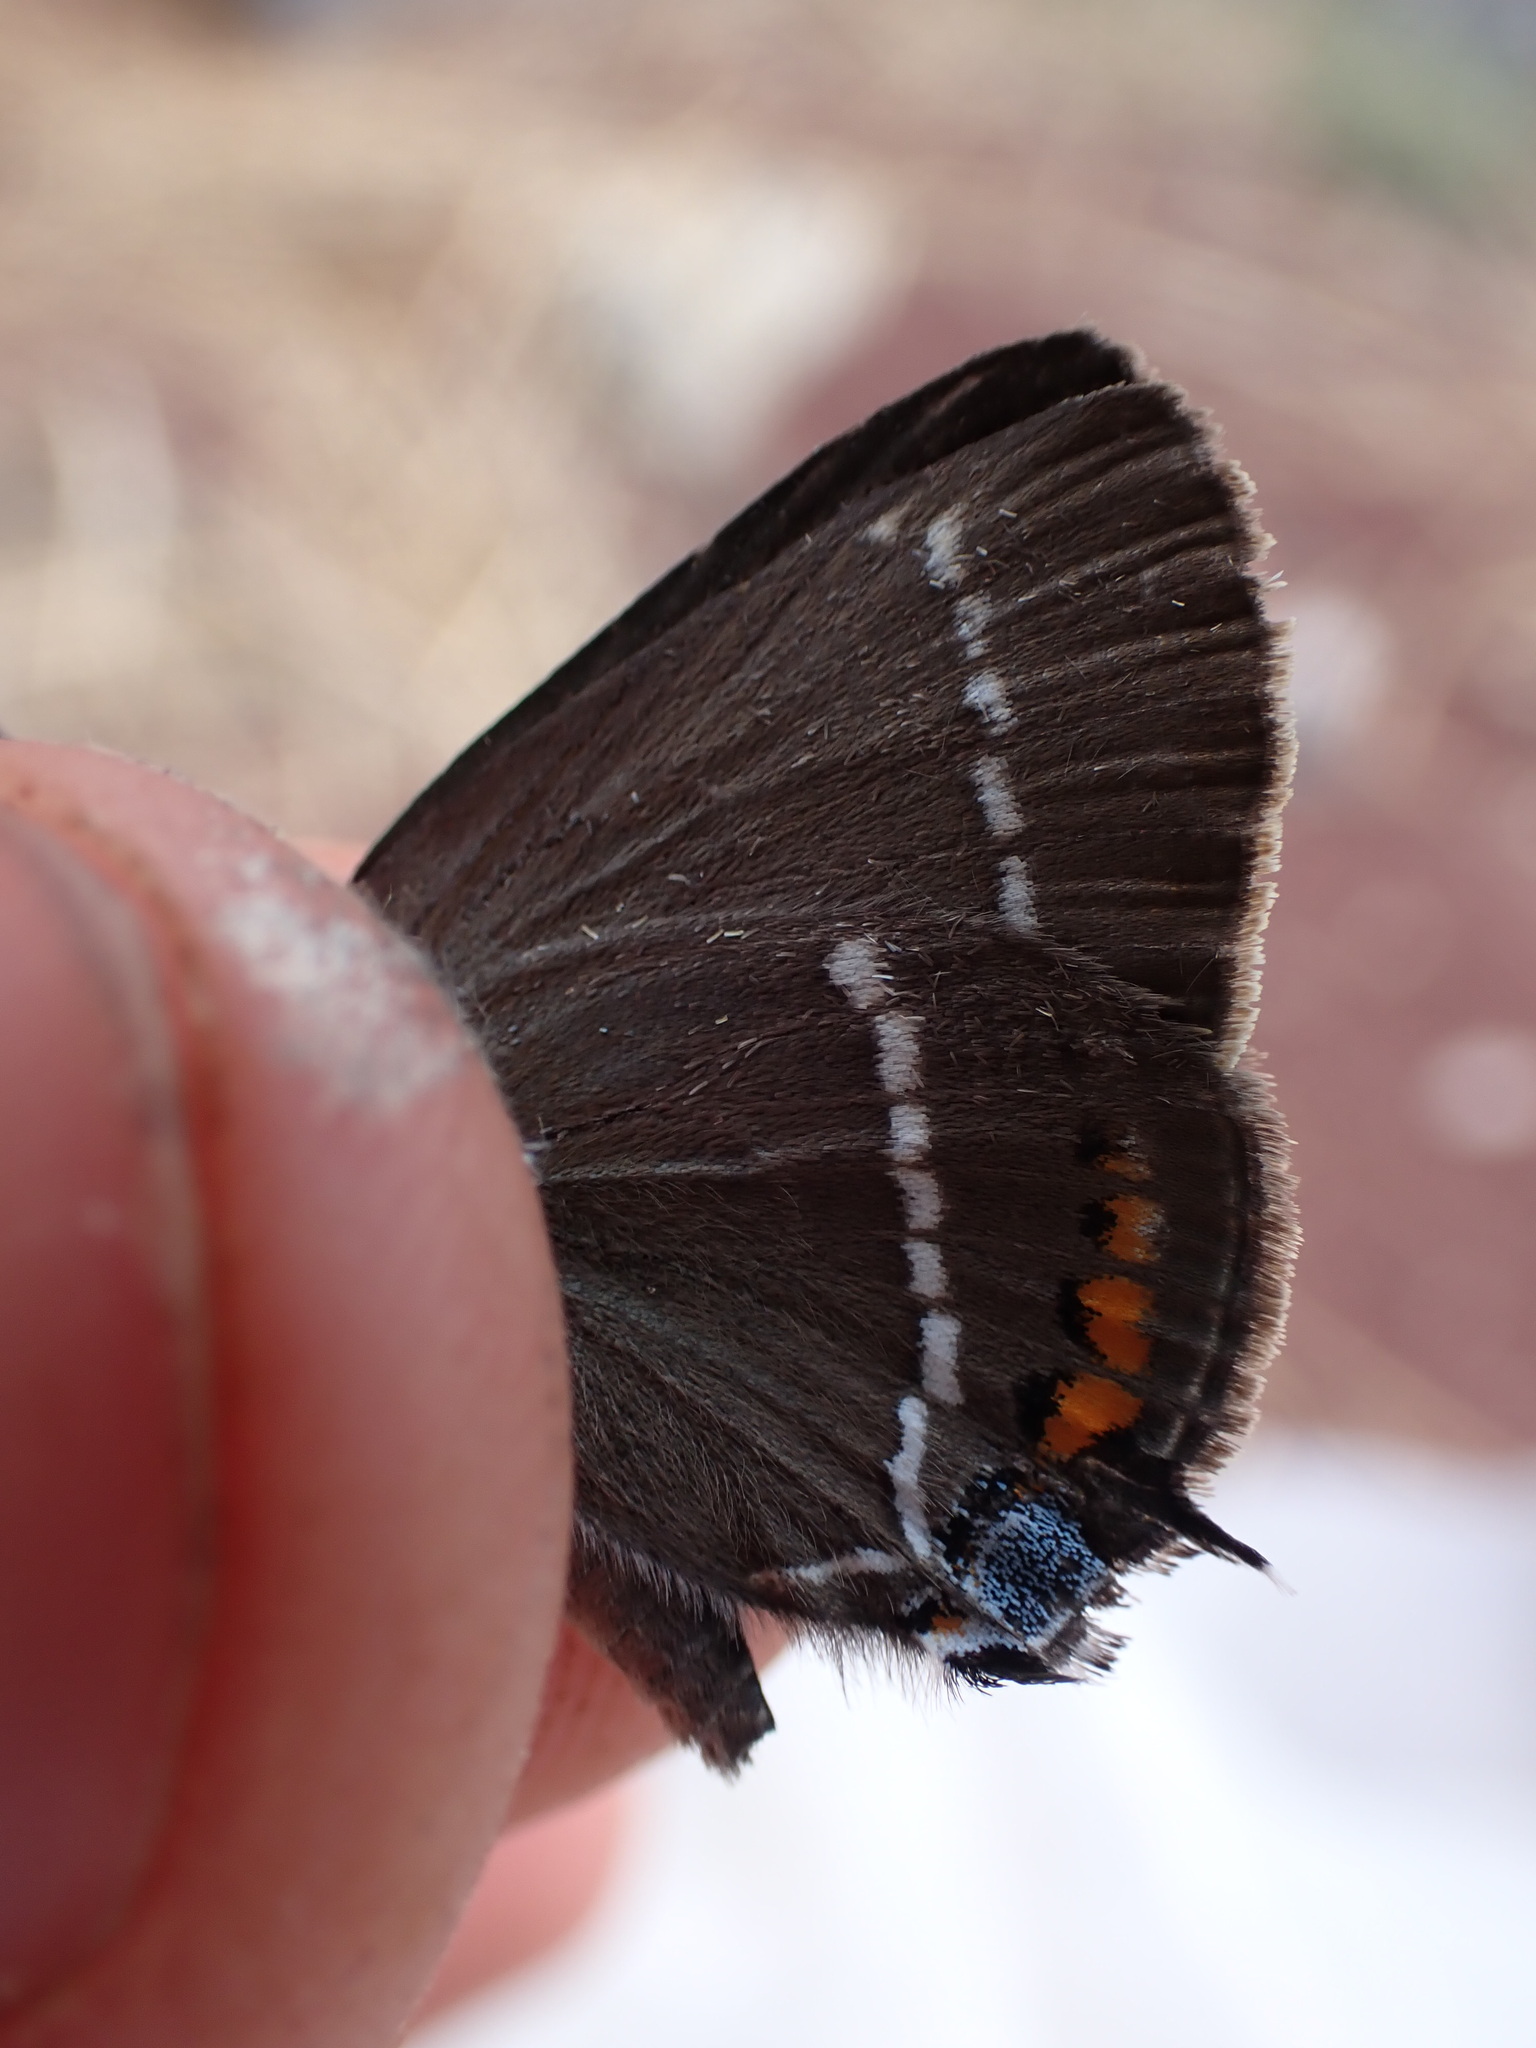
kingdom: Animalia
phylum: Arthropoda
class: Insecta
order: Lepidoptera
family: Lycaenidae
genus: Tuttiola
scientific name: Tuttiola spini
